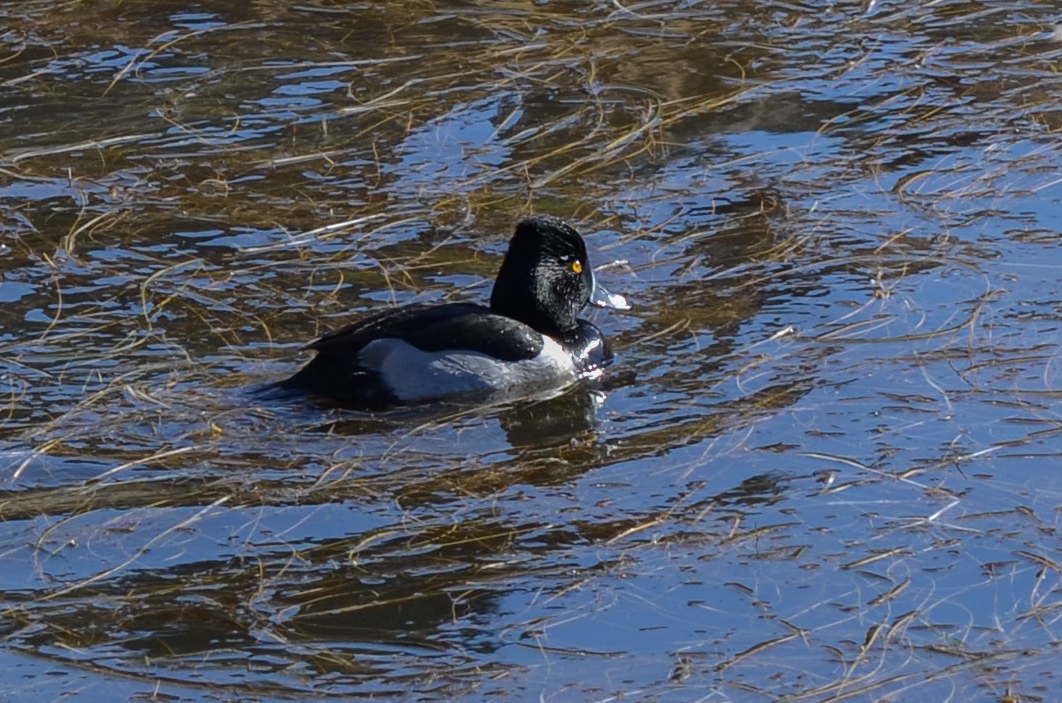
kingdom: Animalia
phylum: Chordata
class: Aves
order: Anseriformes
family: Anatidae
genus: Aythya
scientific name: Aythya collaris
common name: Ring-necked duck
